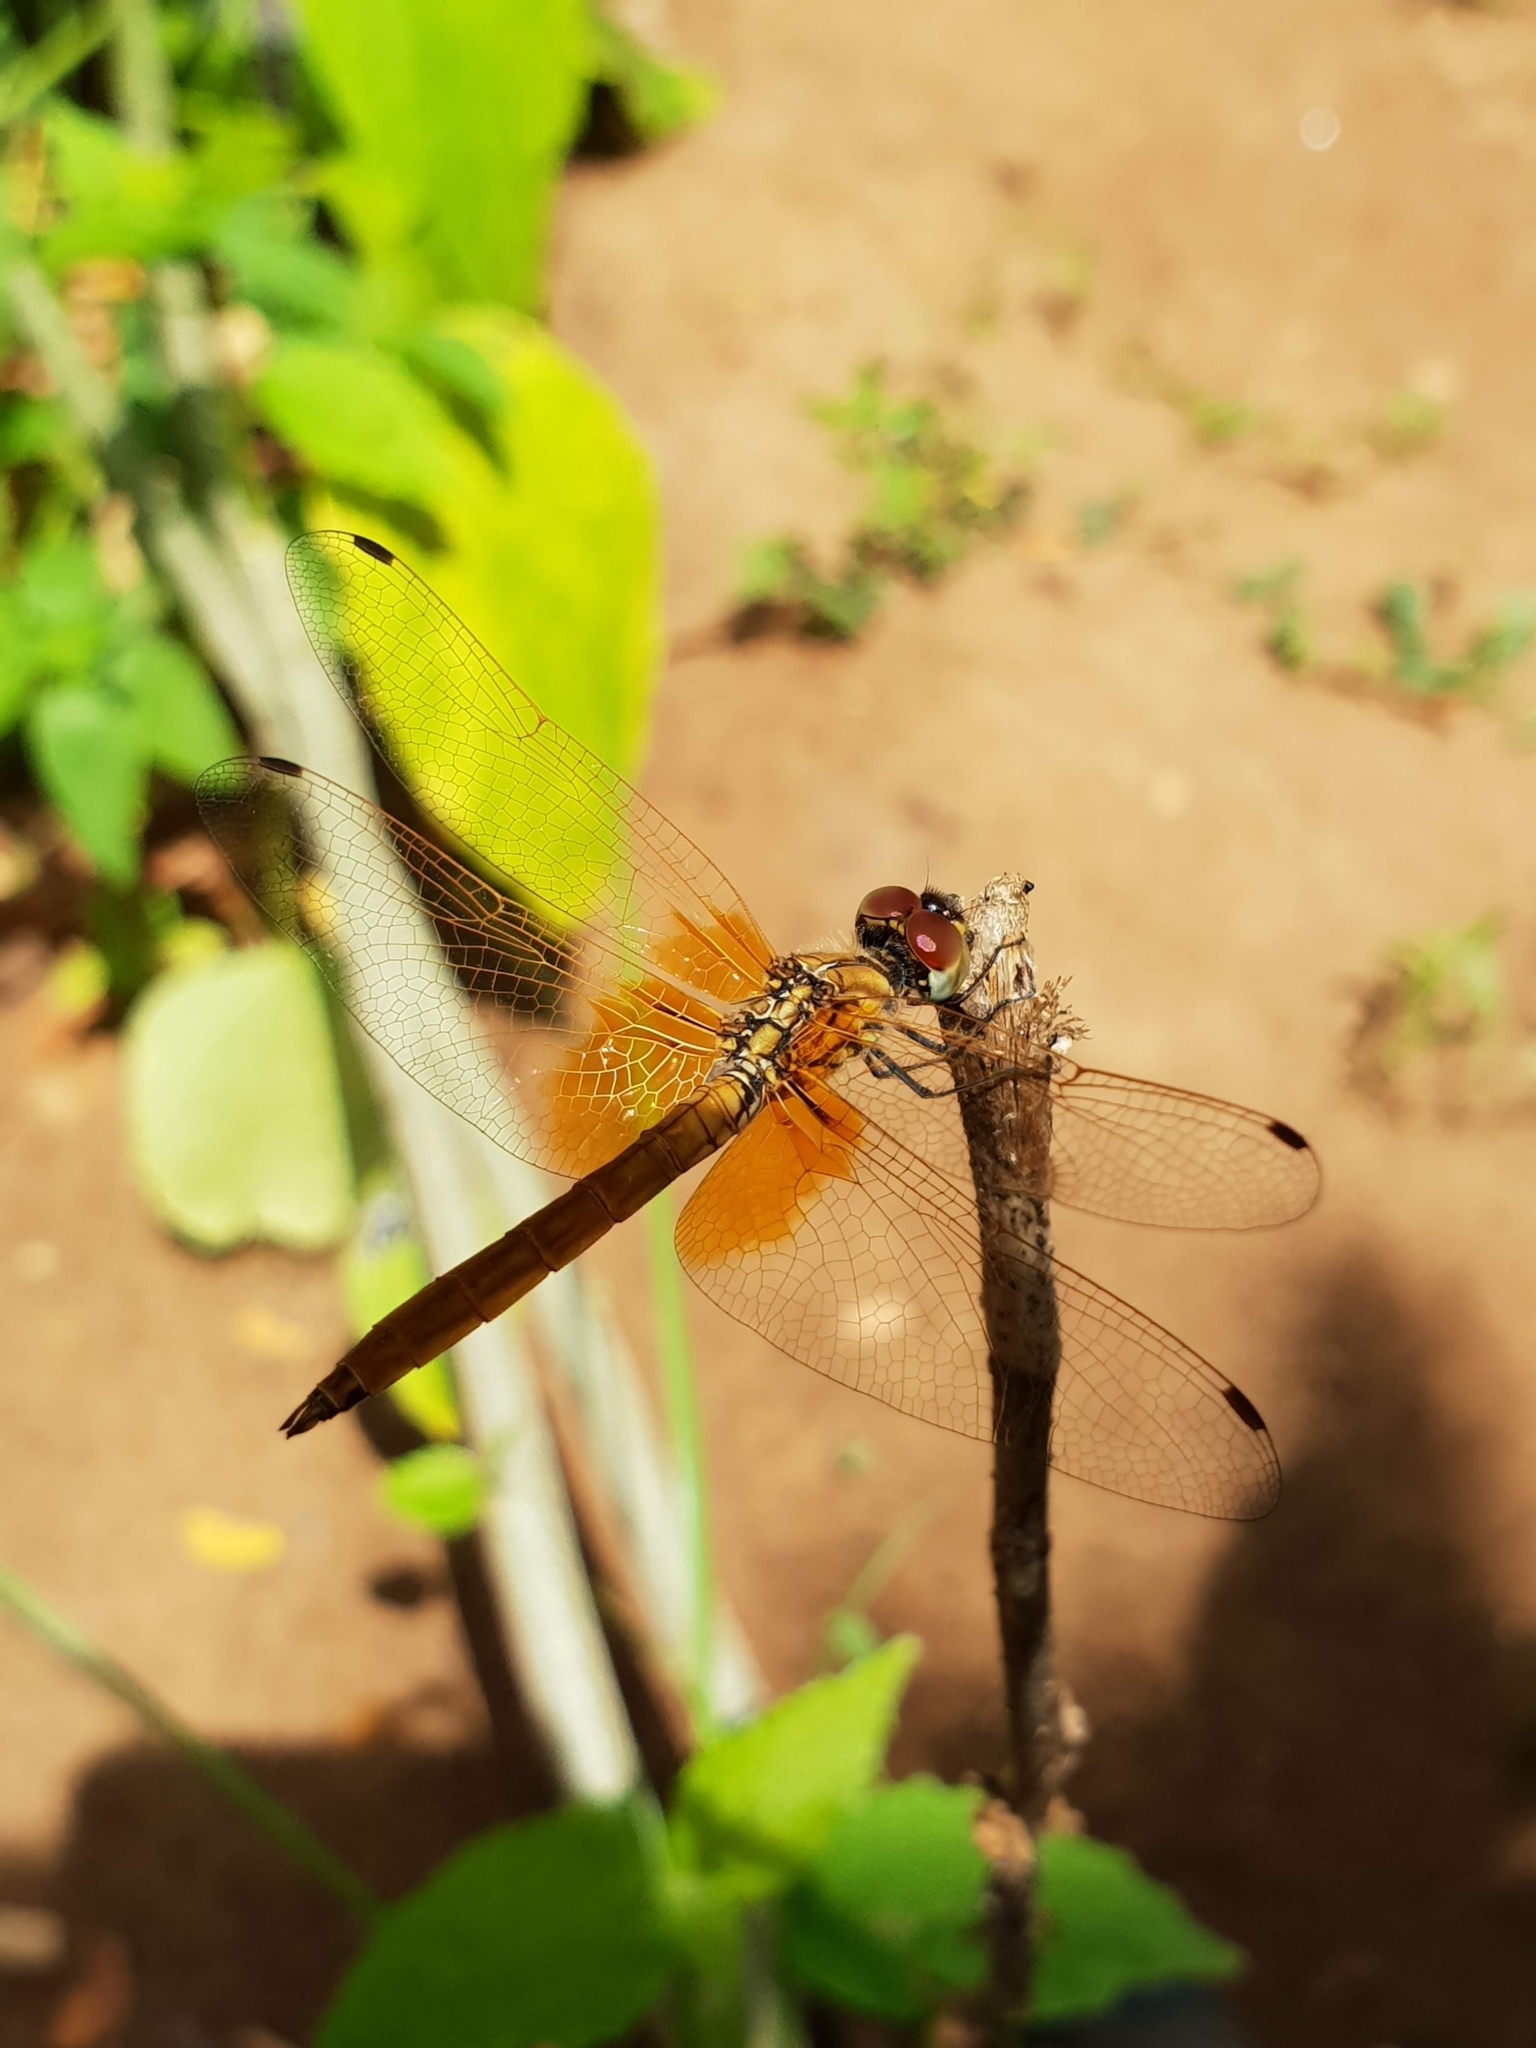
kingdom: Animalia
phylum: Arthropoda
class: Insecta
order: Odonata
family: Libellulidae
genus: Trithemis
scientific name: Trithemis aurora
